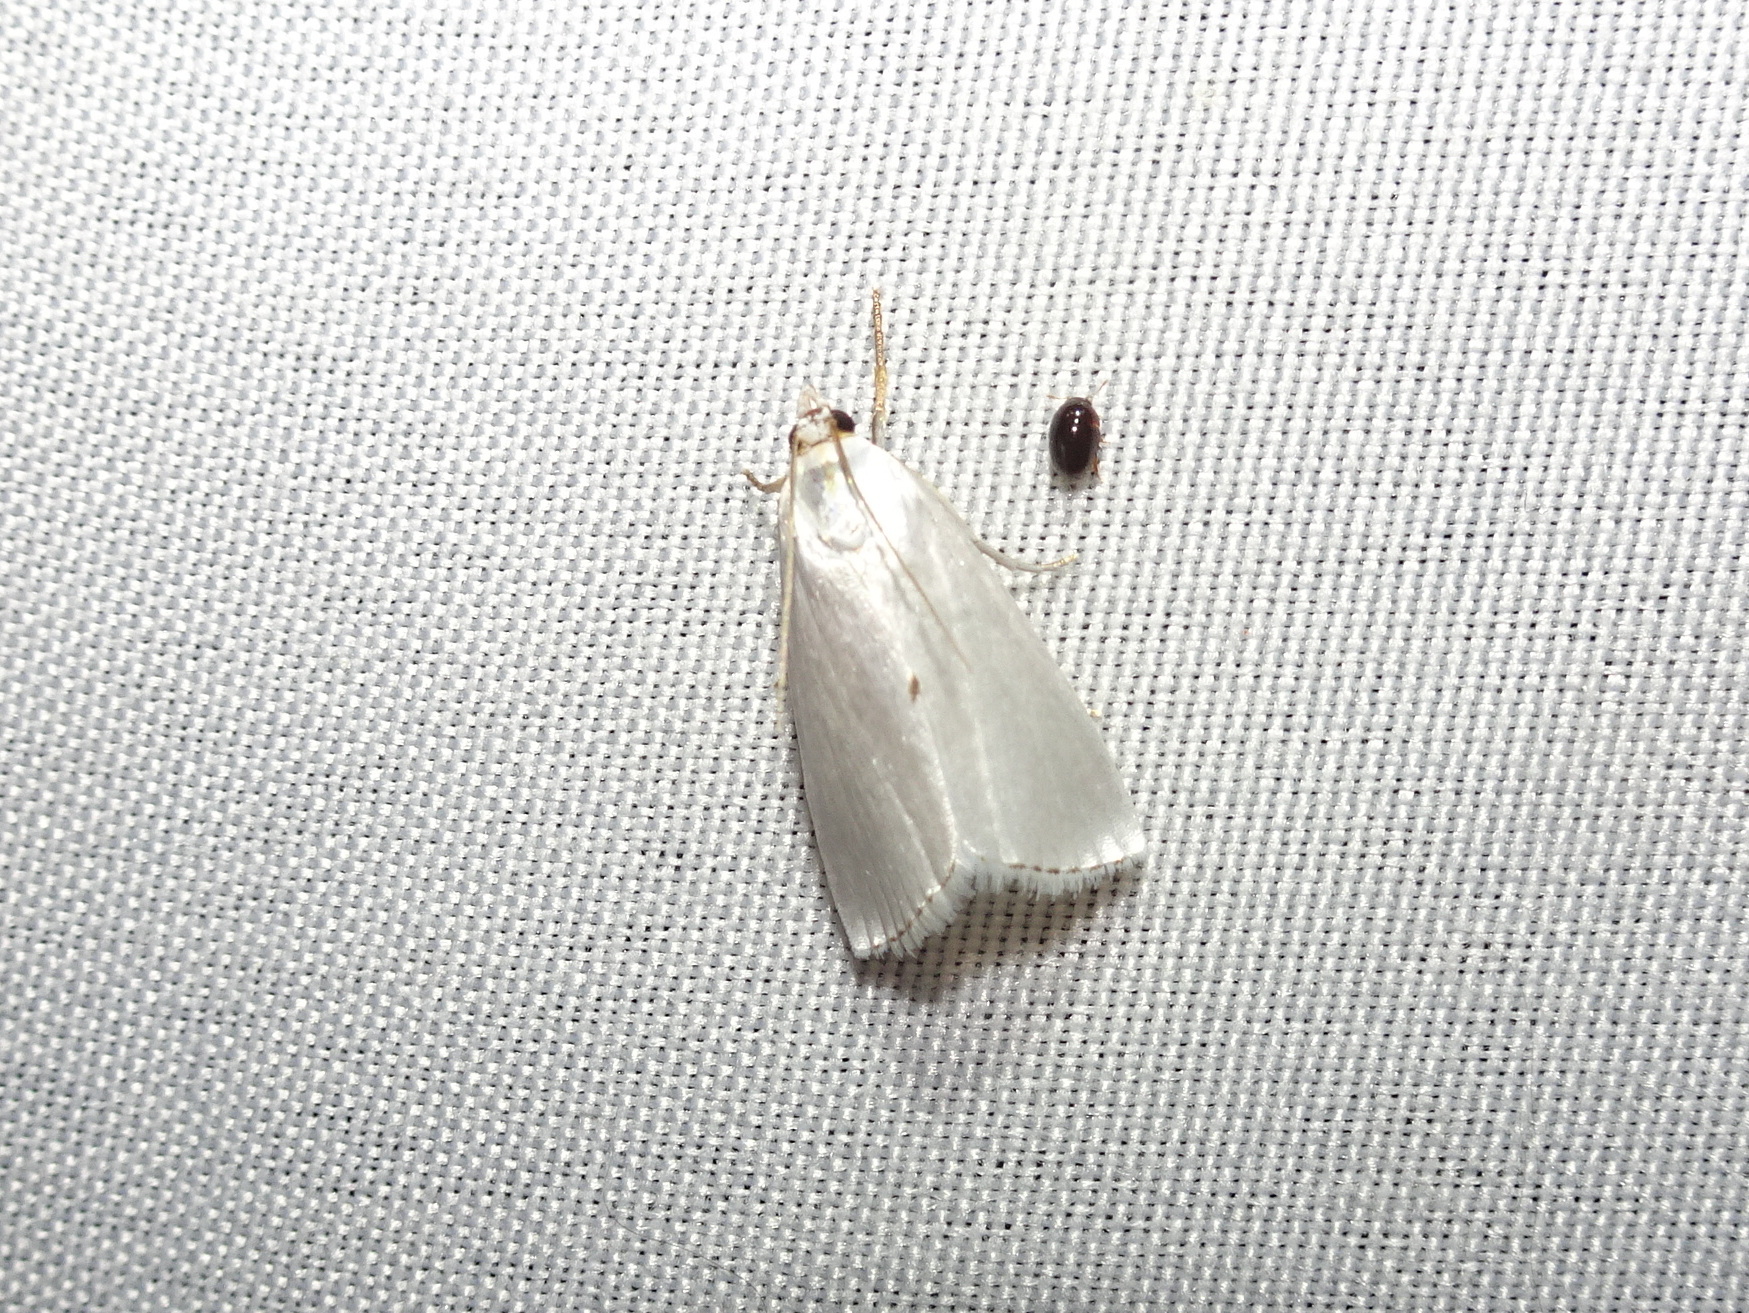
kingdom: Animalia
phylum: Arthropoda
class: Insecta
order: Lepidoptera
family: Crambidae
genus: Argyria
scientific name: Argyria nivalis
